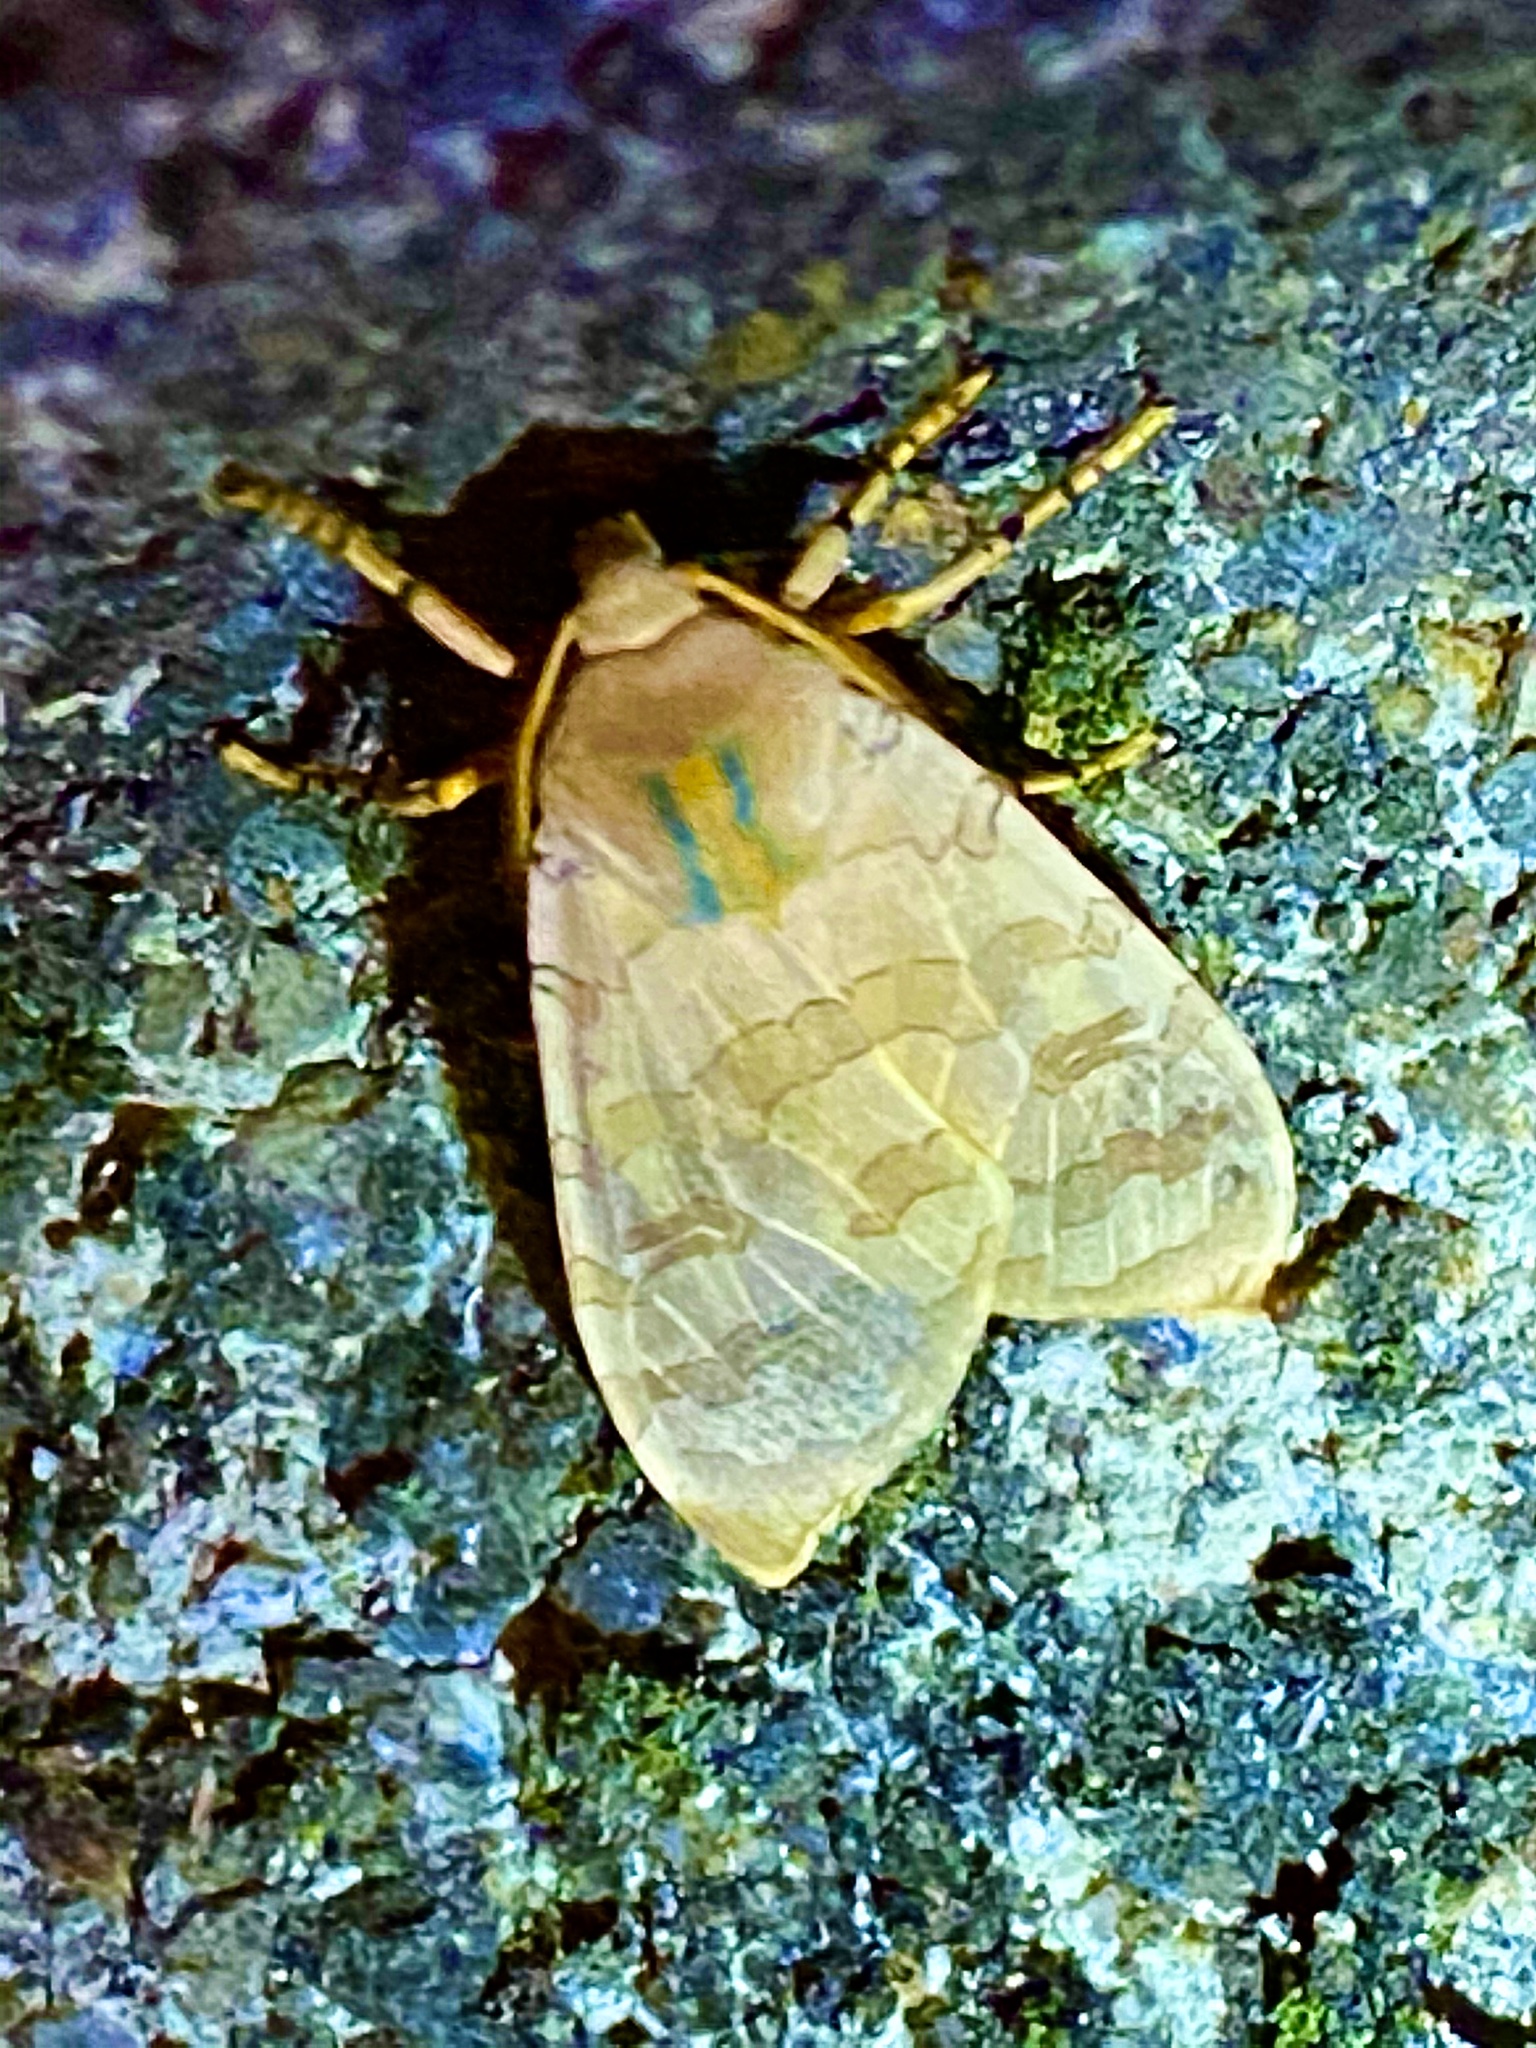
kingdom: Animalia
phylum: Arthropoda
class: Insecta
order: Lepidoptera
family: Erebidae
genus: Halysidota
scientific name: Halysidota
